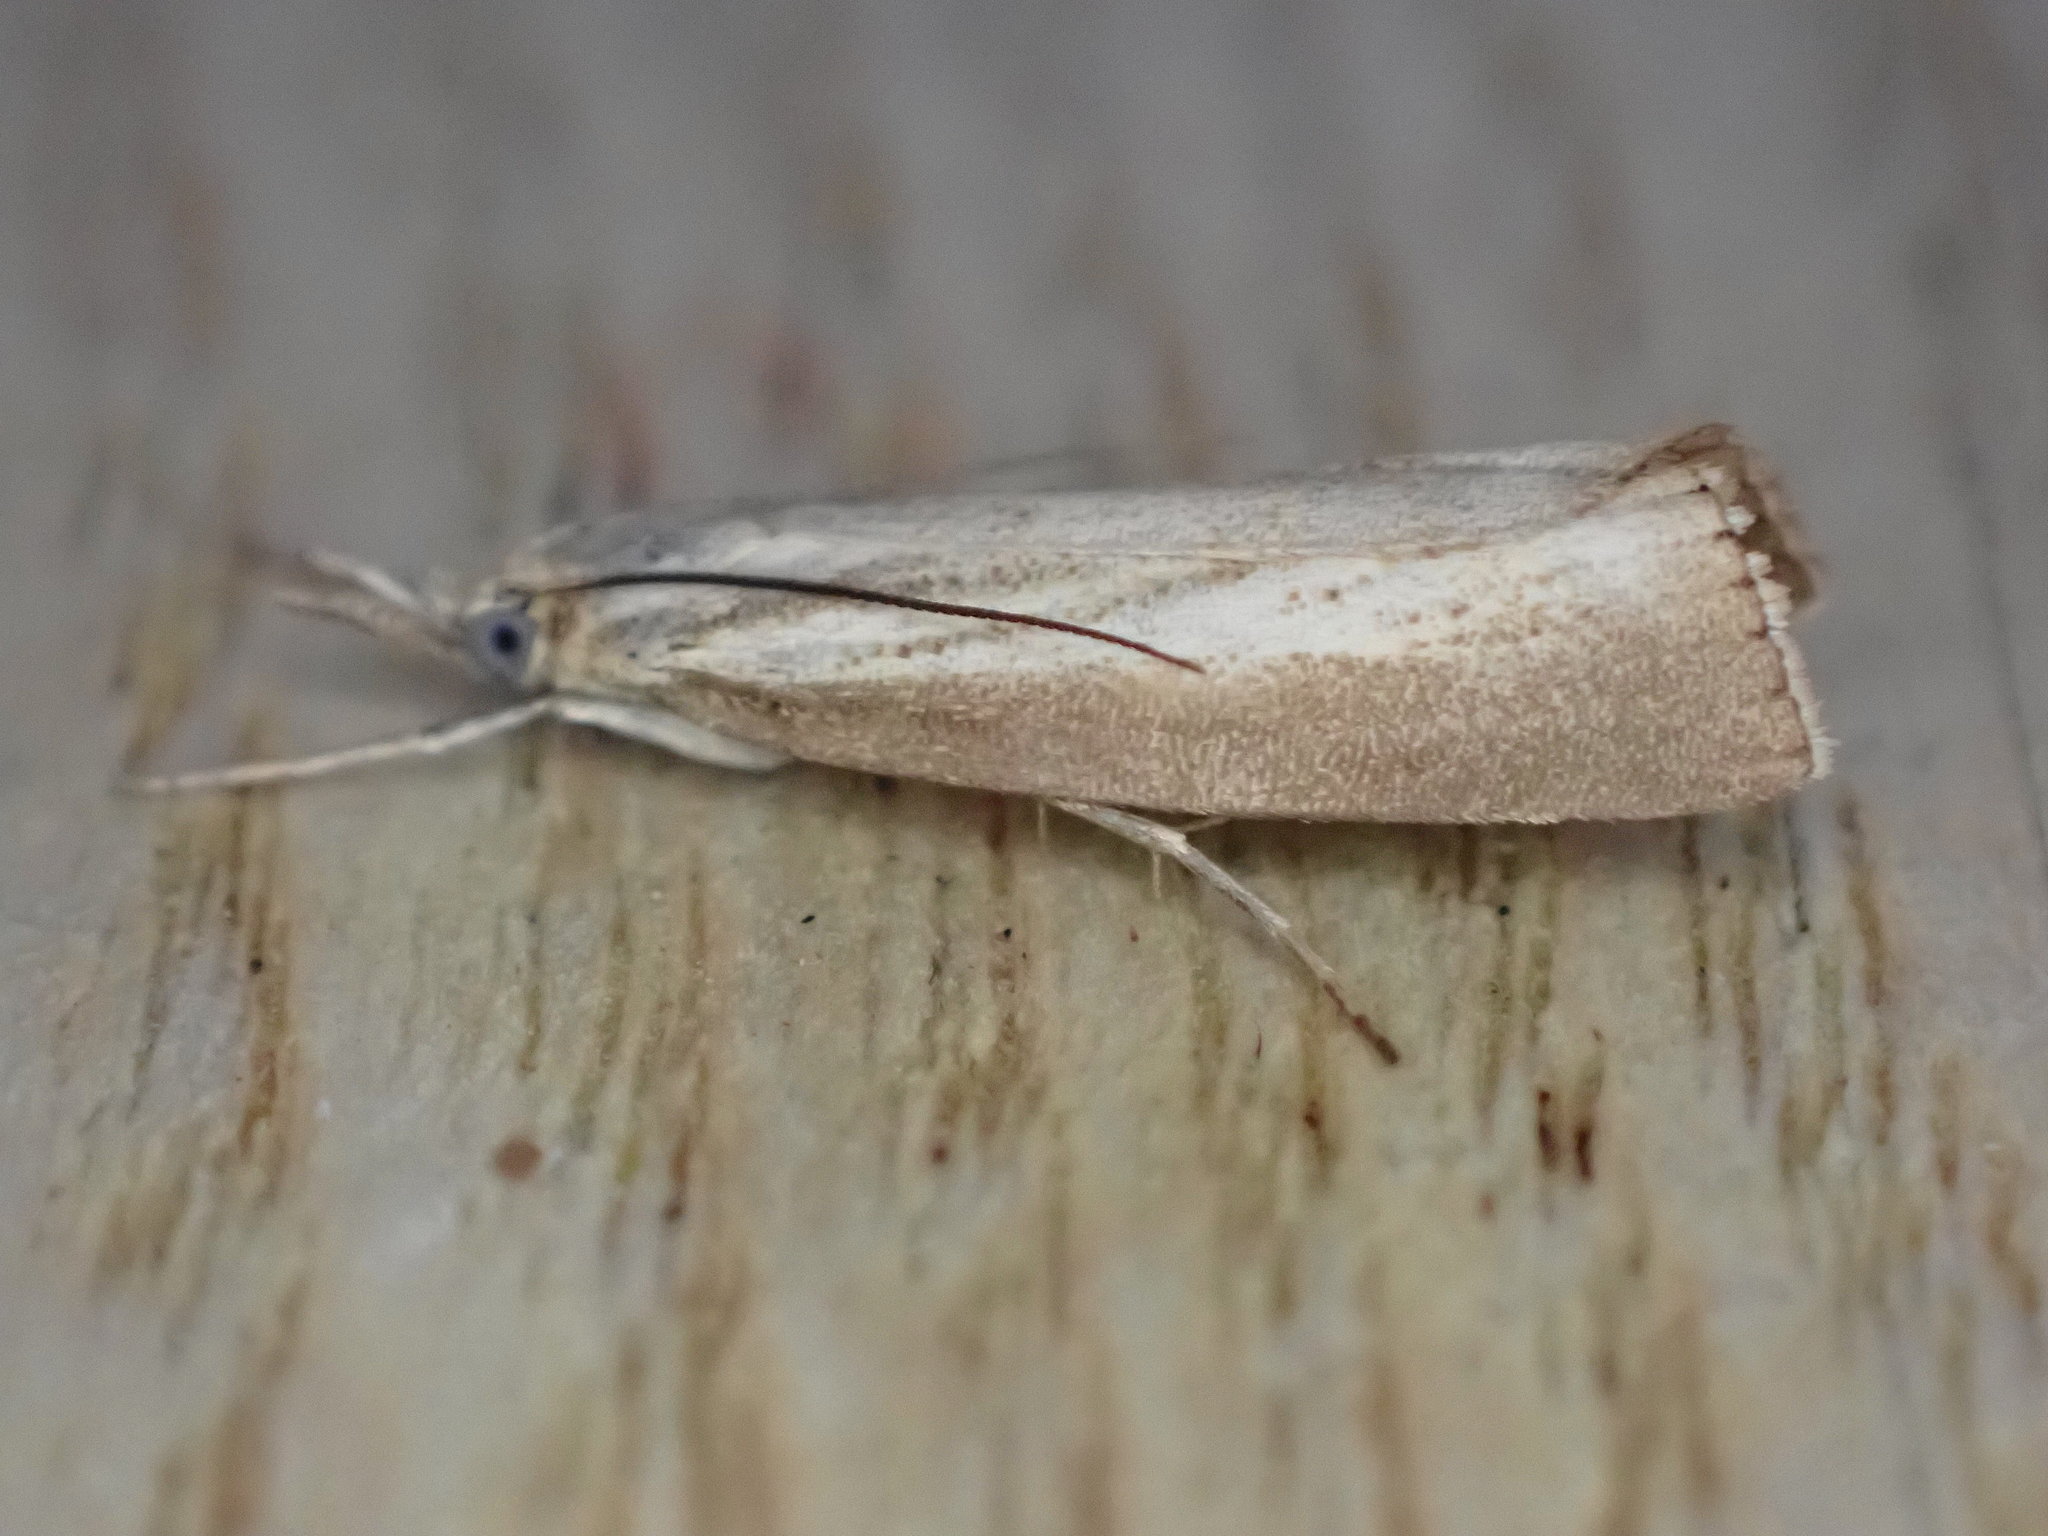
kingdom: Animalia
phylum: Arthropoda
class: Insecta
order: Lepidoptera
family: Crambidae
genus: Agriphila
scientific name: Agriphila straminella
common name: Straw grass-veneer
